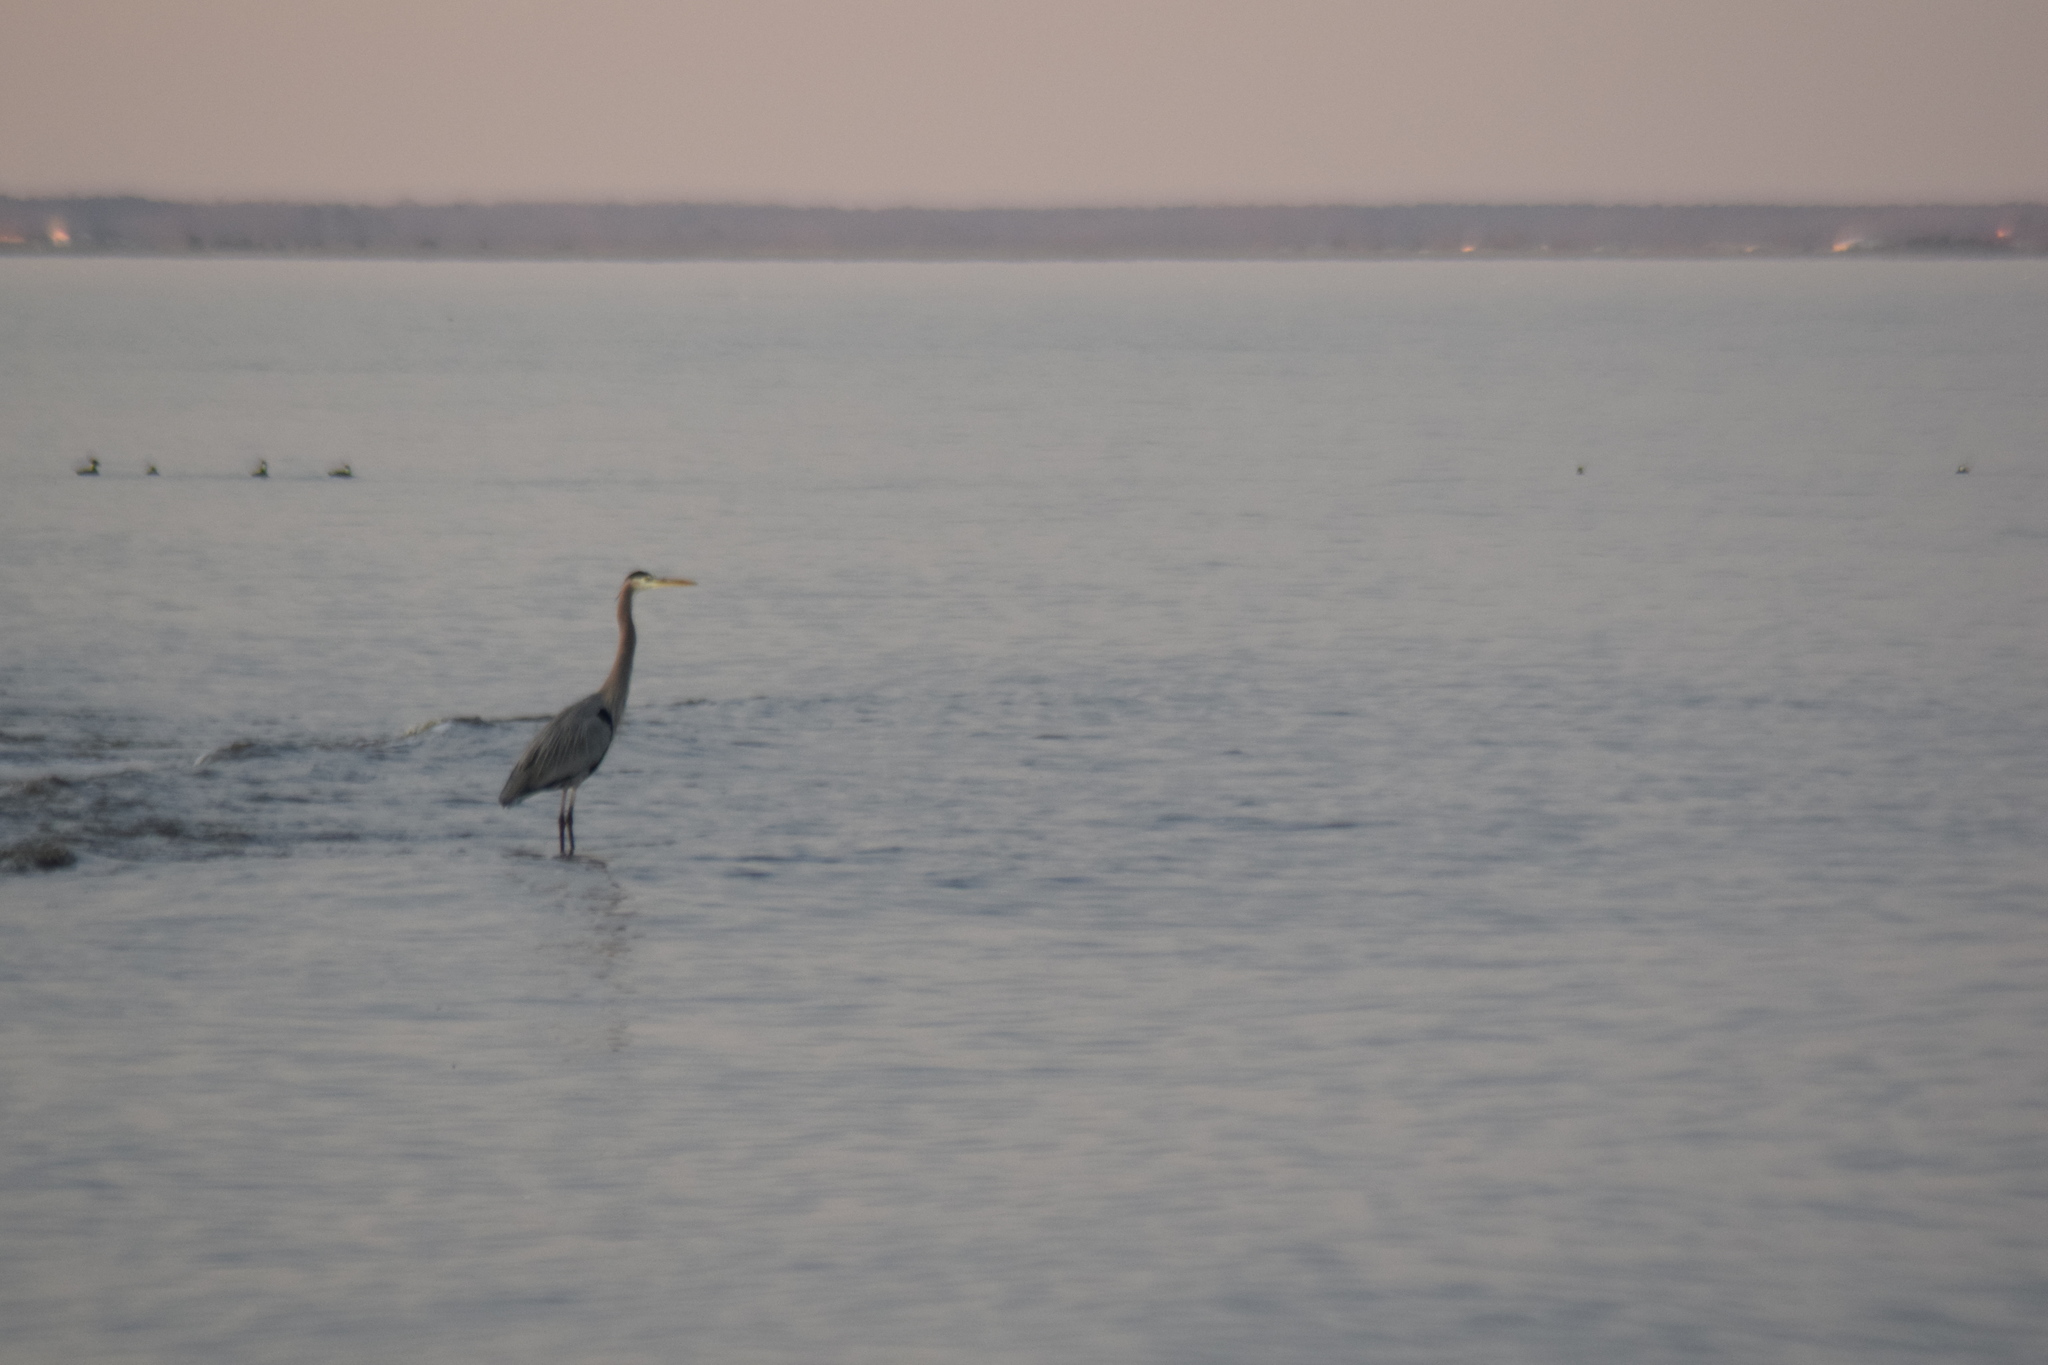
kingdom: Animalia
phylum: Chordata
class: Aves
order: Pelecaniformes
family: Ardeidae
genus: Ardea
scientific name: Ardea herodias
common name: Great blue heron
